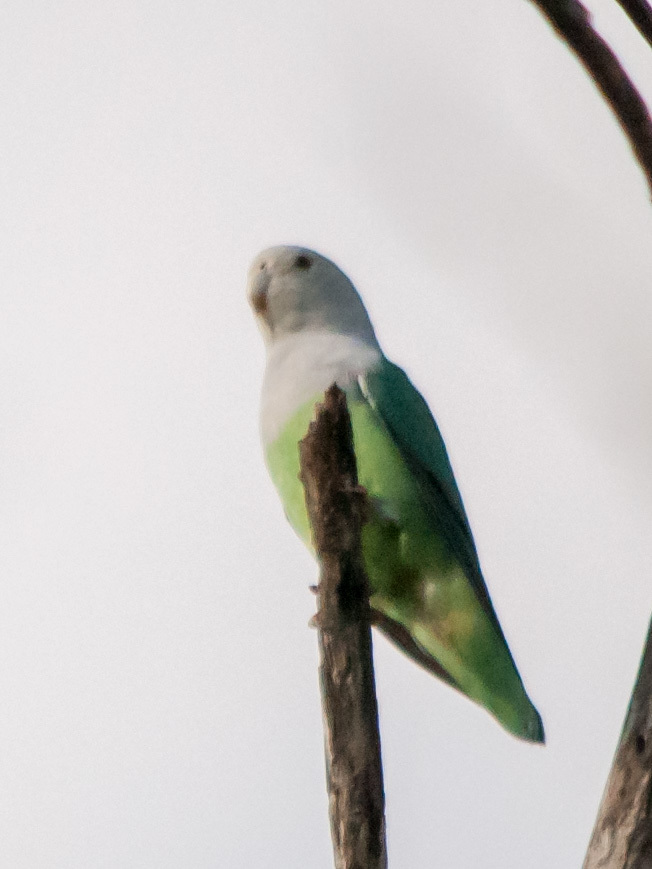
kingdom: Animalia
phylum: Chordata
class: Aves
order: Psittaciformes
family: Psittacidae
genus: Agapornis
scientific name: Agapornis canus
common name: Grey-headed lovebird
